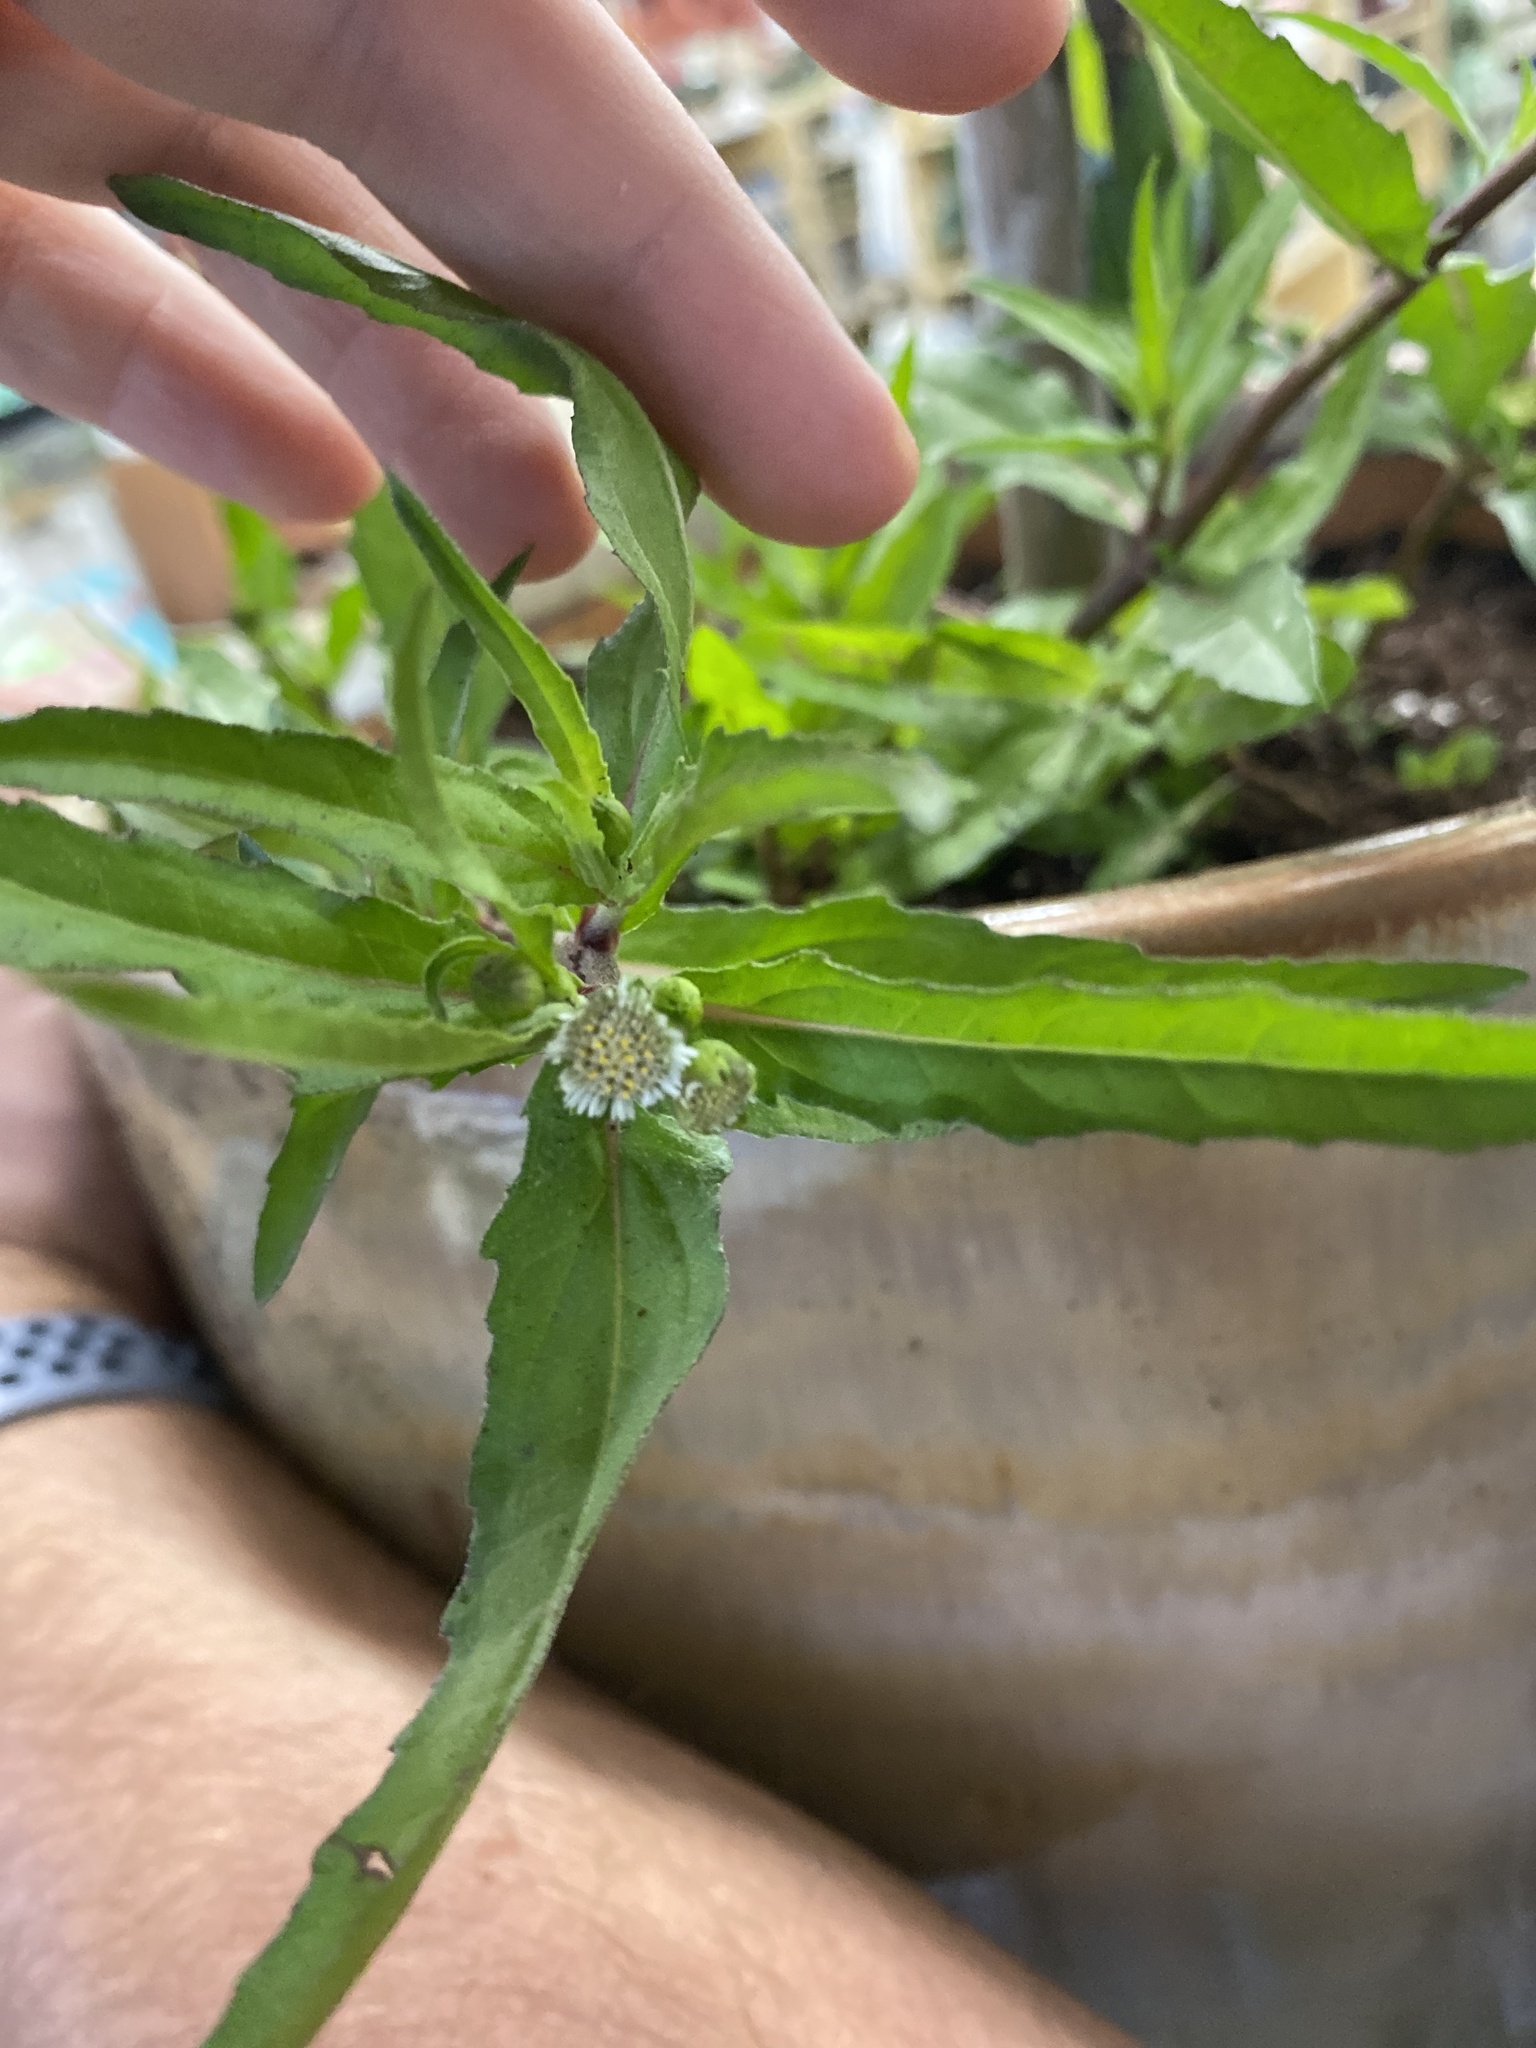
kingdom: Plantae
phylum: Tracheophyta
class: Magnoliopsida
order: Asterales
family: Asteraceae
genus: Eclipta
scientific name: Eclipta prostrata
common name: False daisy
